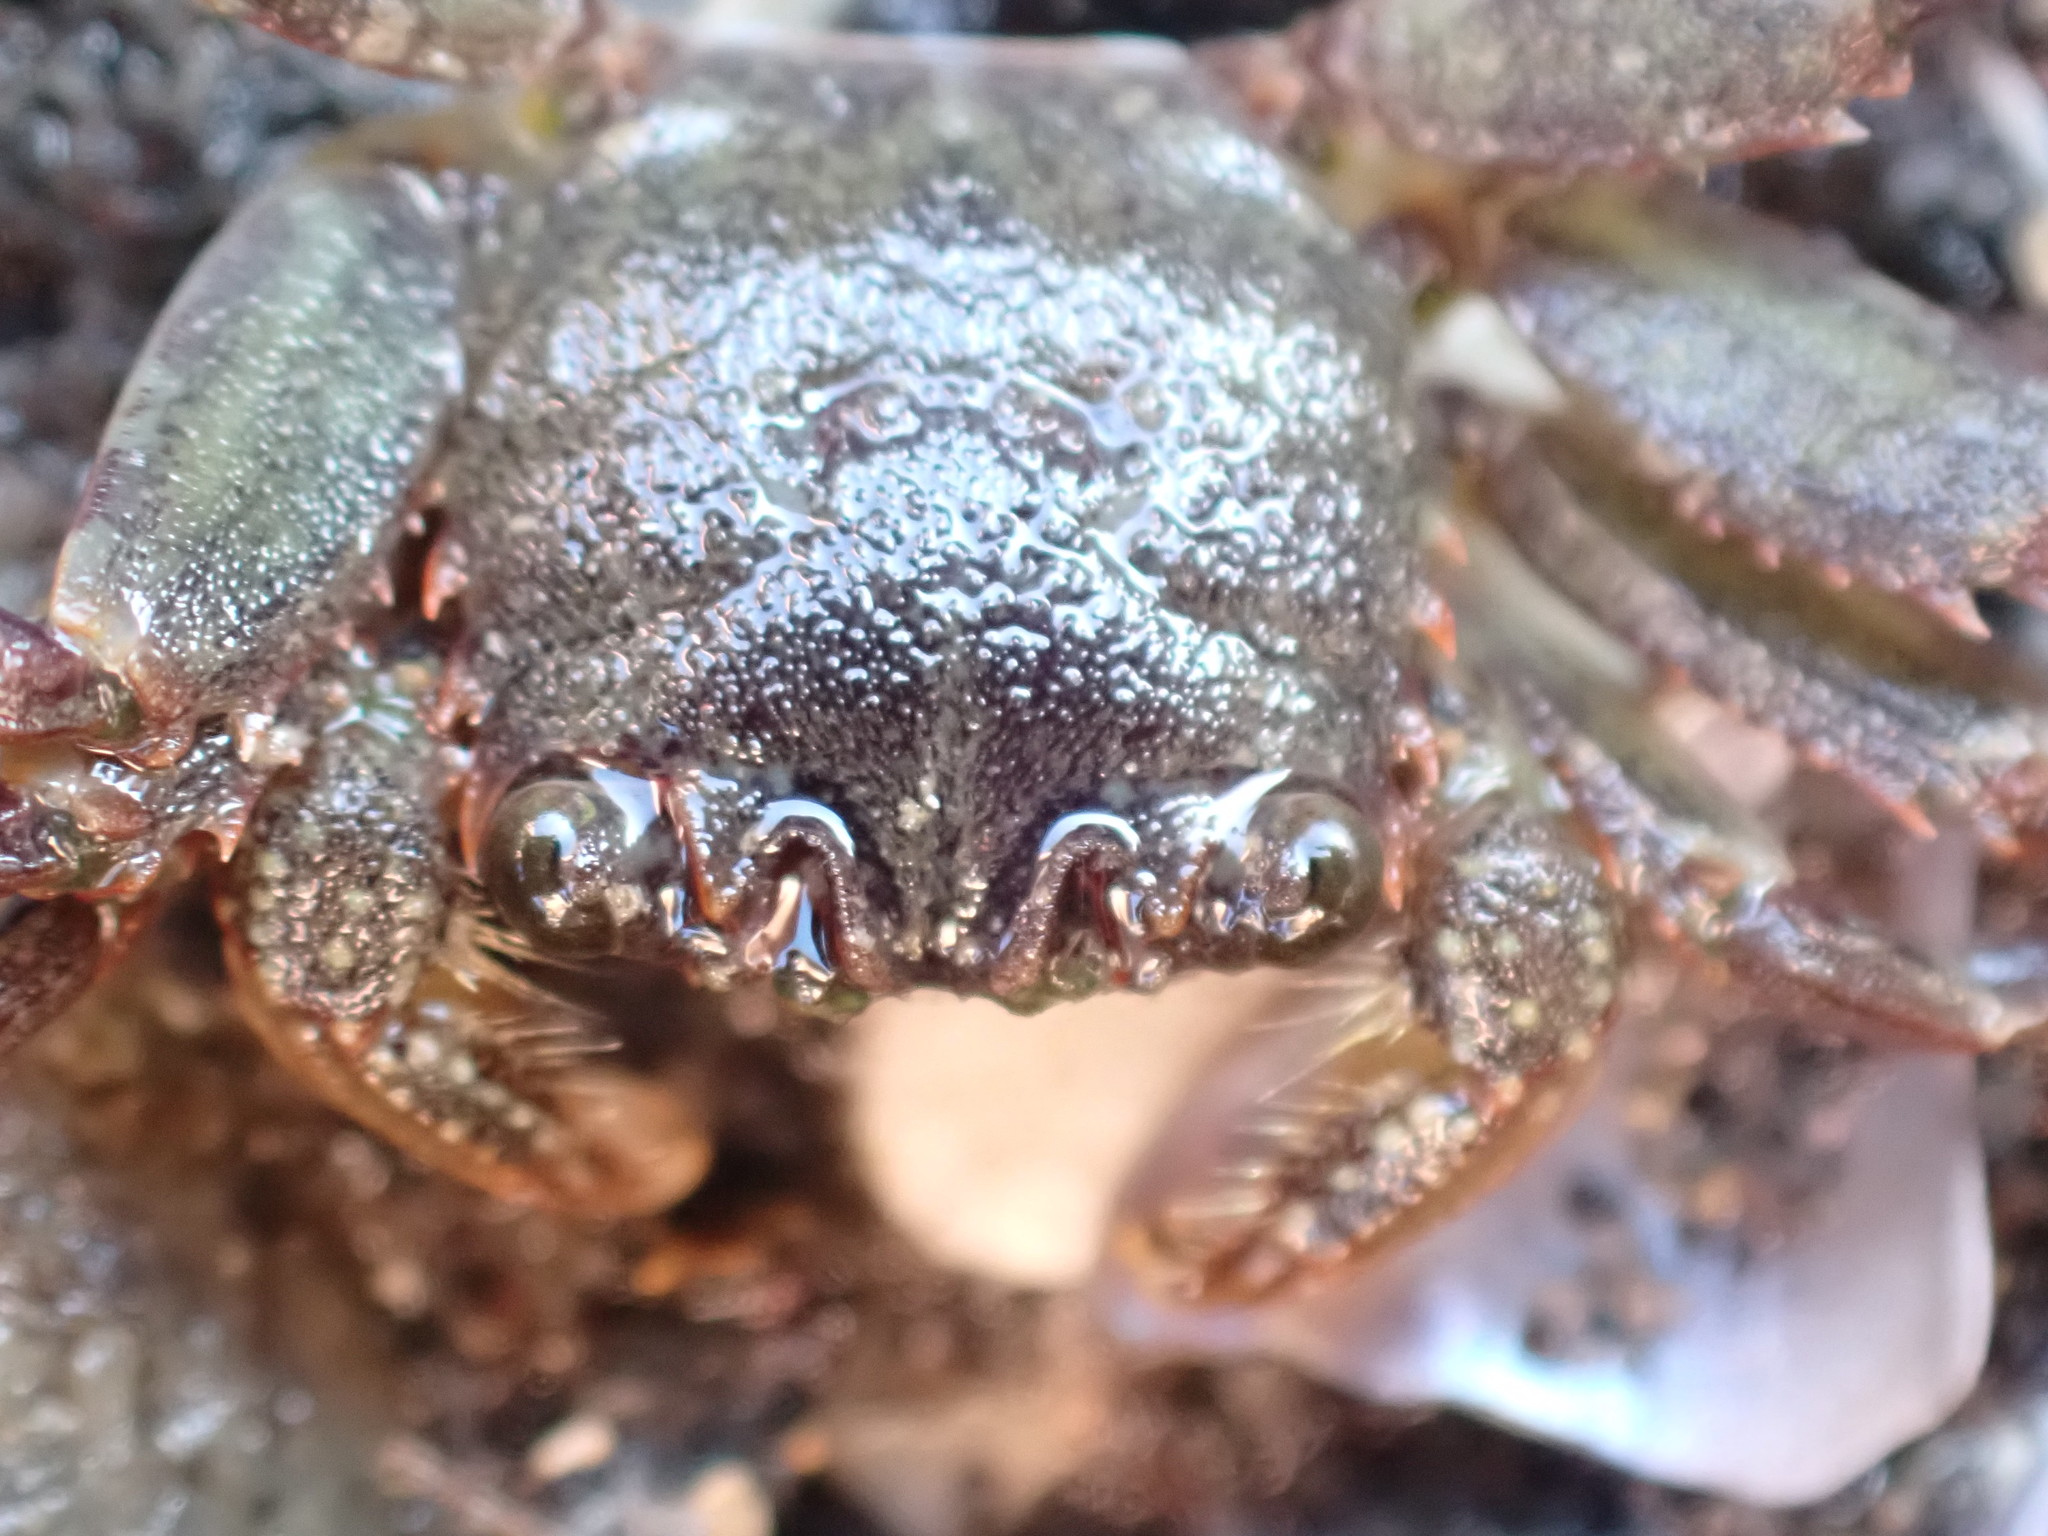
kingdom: Animalia
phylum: Arthropoda
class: Malacostraca
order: Decapoda
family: Plagusiidae
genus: Guinusia
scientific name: Guinusia chabrus
